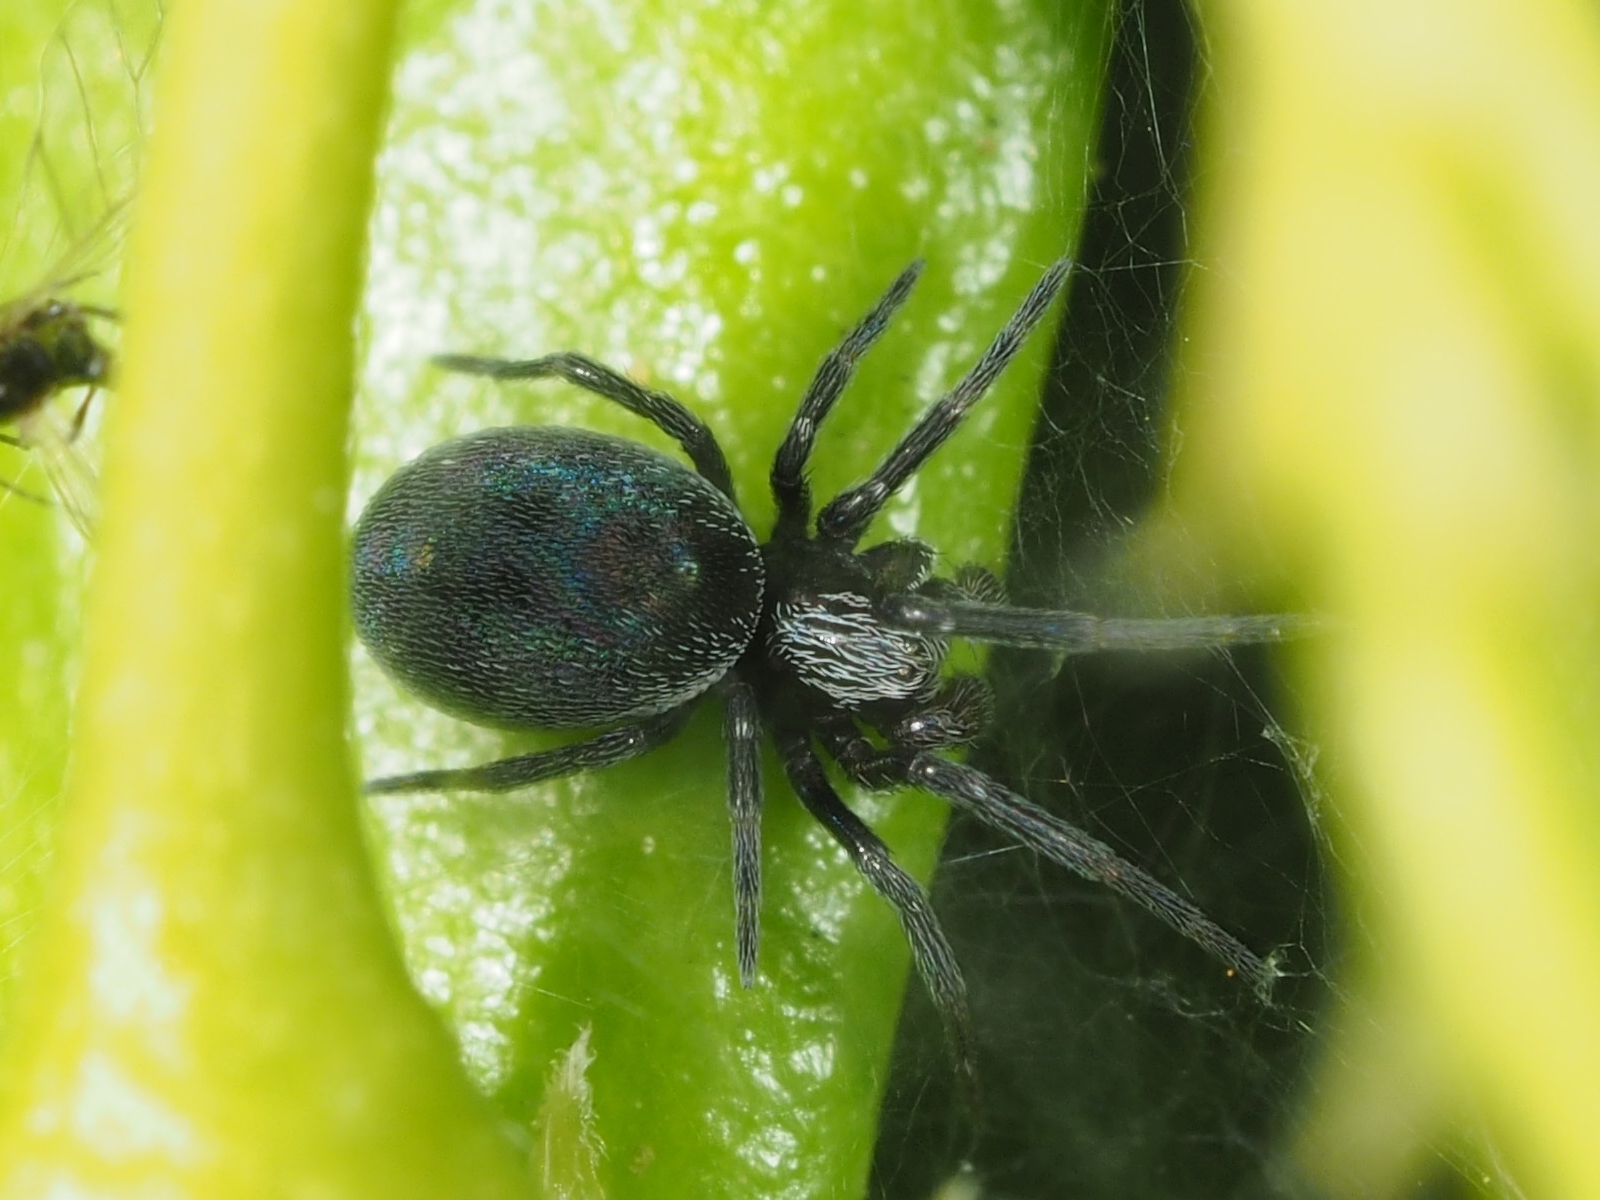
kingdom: Animalia
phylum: Arthropoda
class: Arachnida
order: Araneae
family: Dictynidae
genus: Brigittea
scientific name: Brigittea latens
